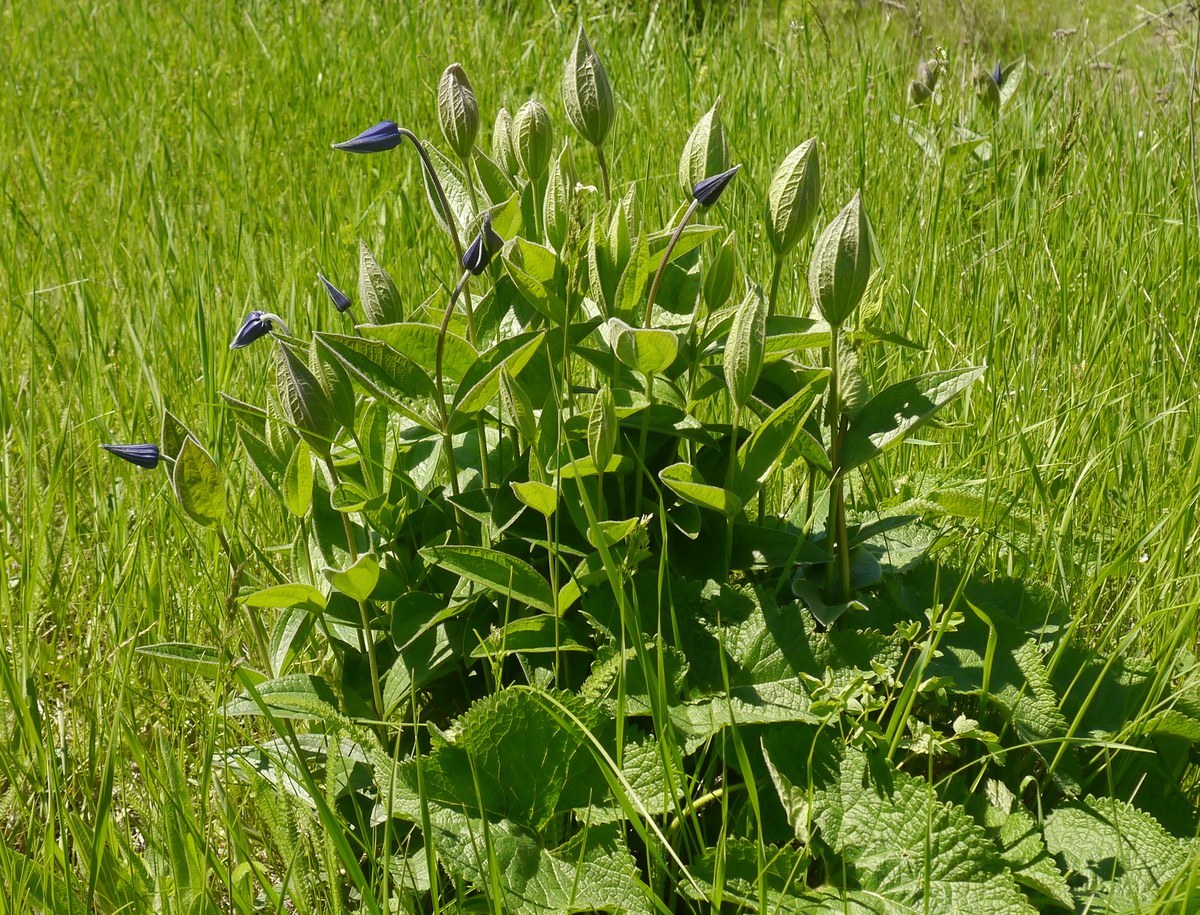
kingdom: Plantae
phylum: Tracheophyta
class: Magnoliopsida
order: Ranunculales
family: Ranunculaceae
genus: Clematis
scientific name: Clematis integrifolia
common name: Solitary clematis
